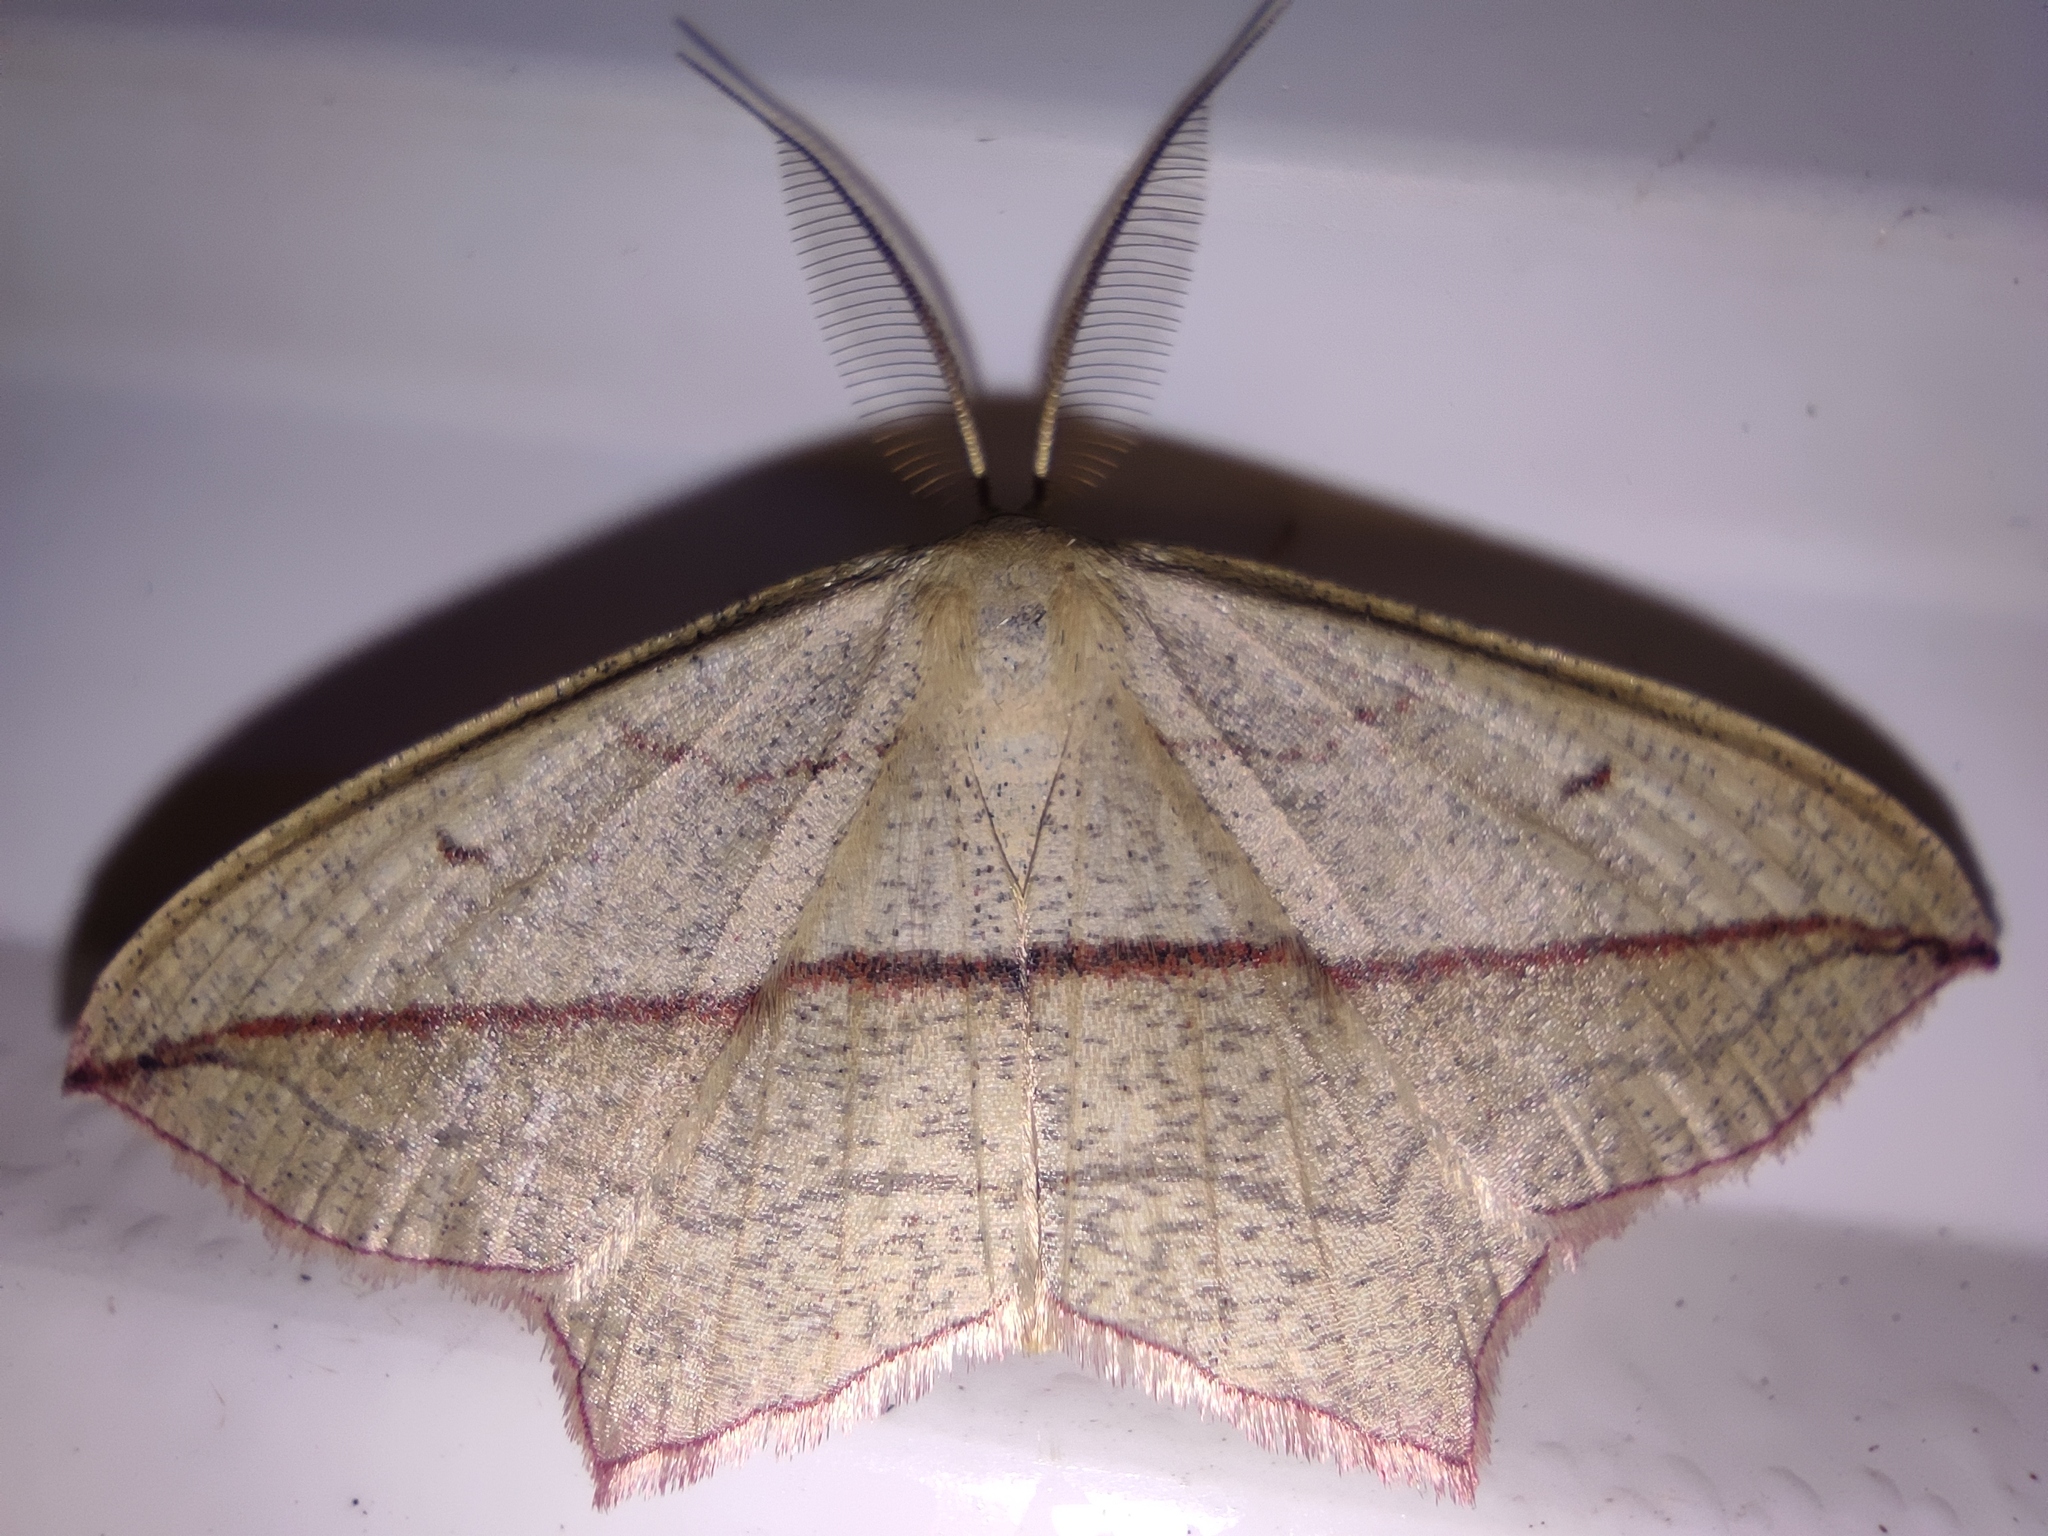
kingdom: Animalia
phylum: Arthropoda
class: Insecta
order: Lepidoptera
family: Geometridae
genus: Timandra
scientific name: Timandra comae
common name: Blood-vein
